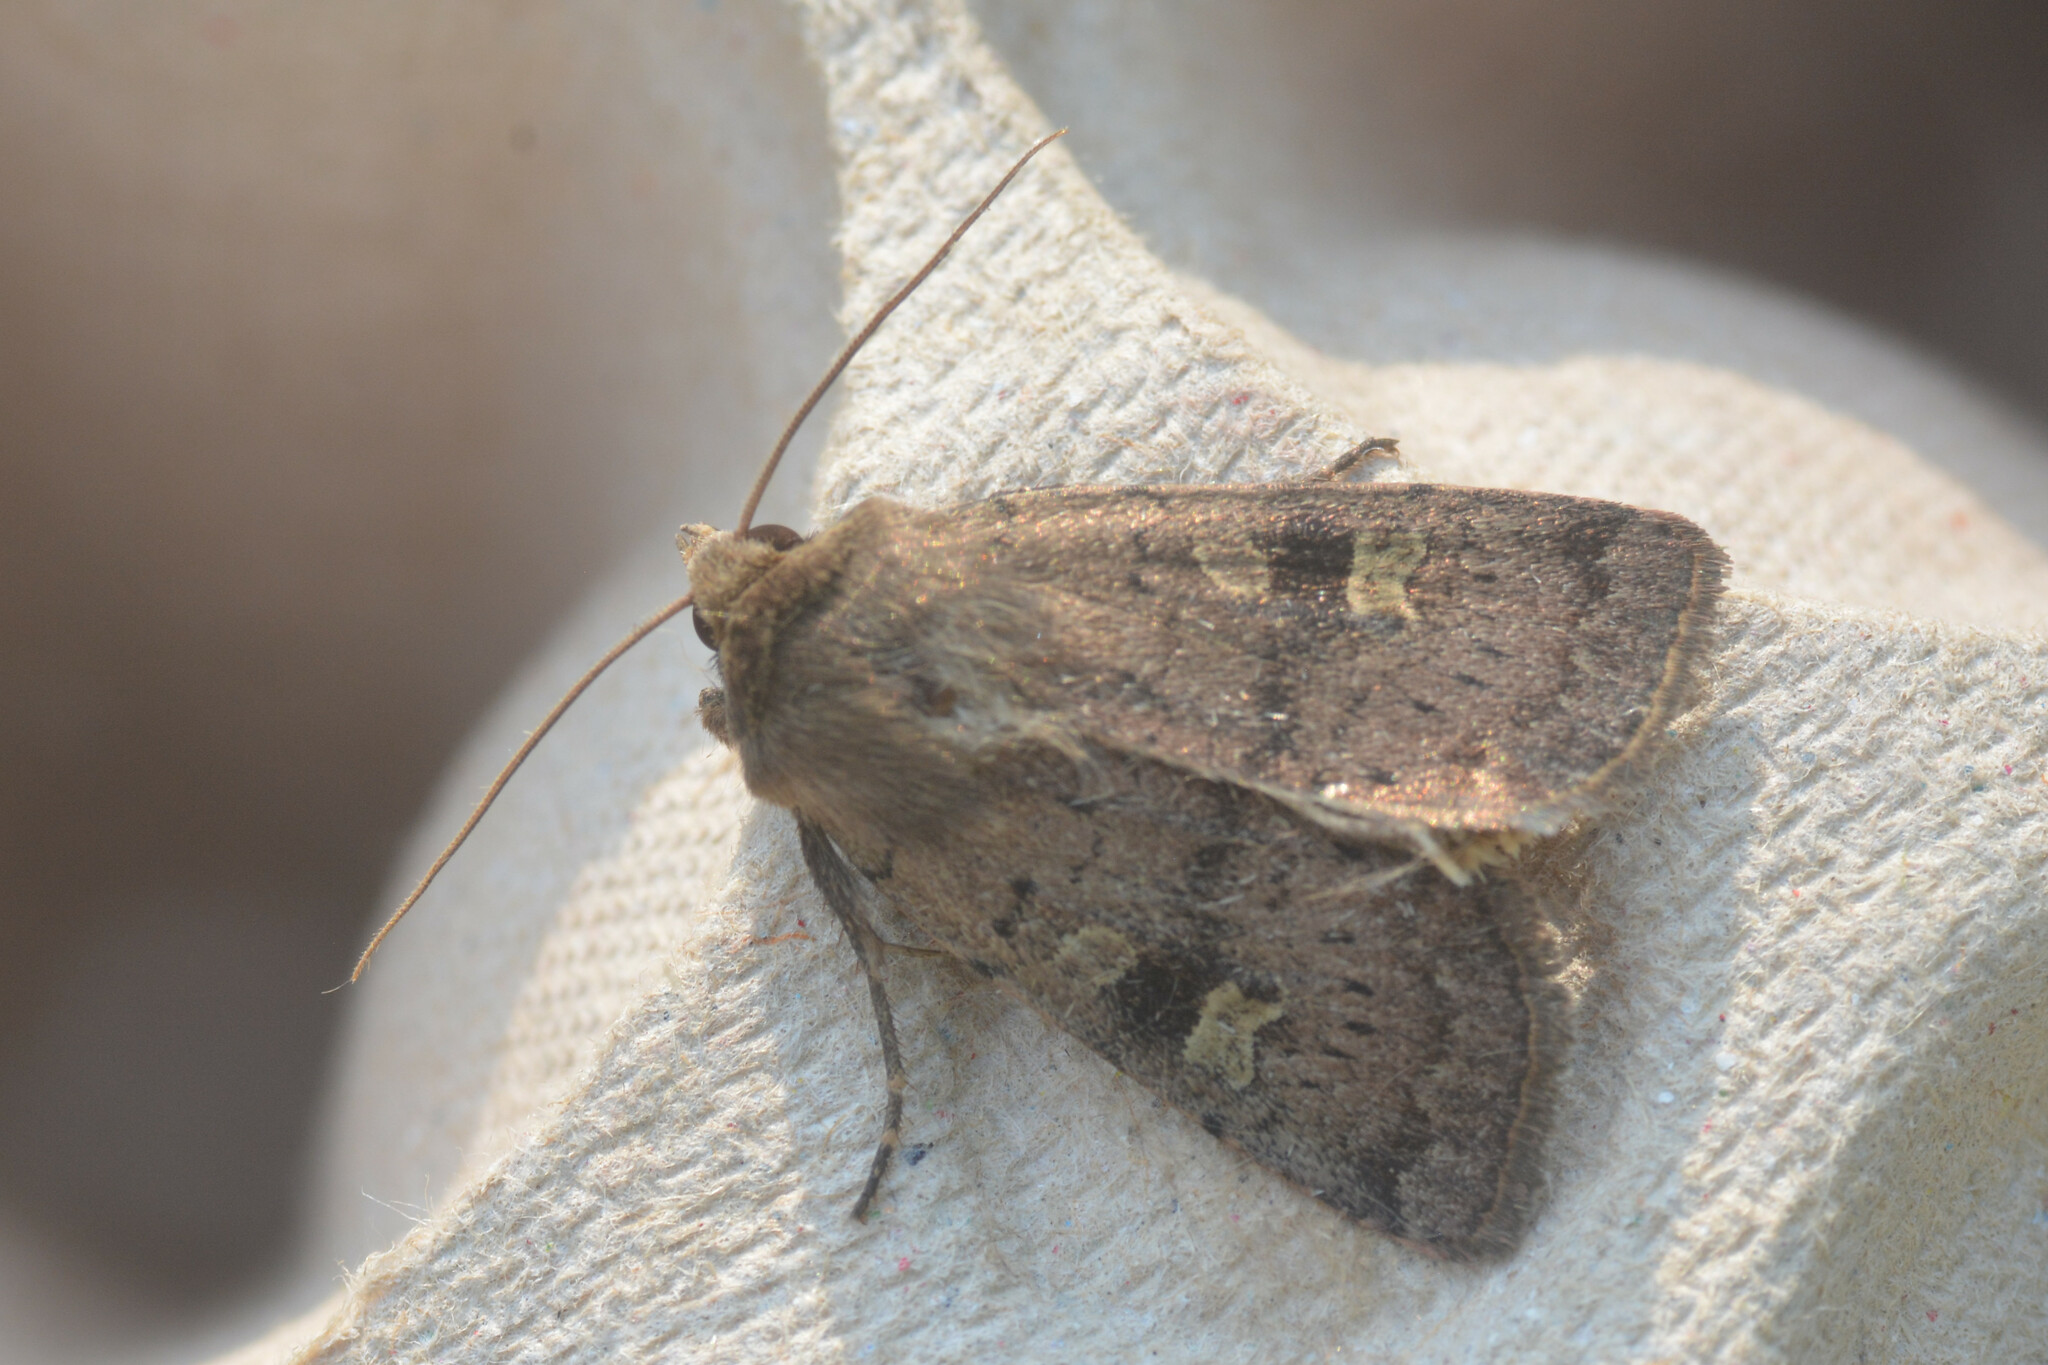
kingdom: Animalia
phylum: Arthropoda
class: Insecta
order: Lepidoptera
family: Noctuidae
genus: Xestia
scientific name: Xestia xanthographa
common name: Square-spot rustic
